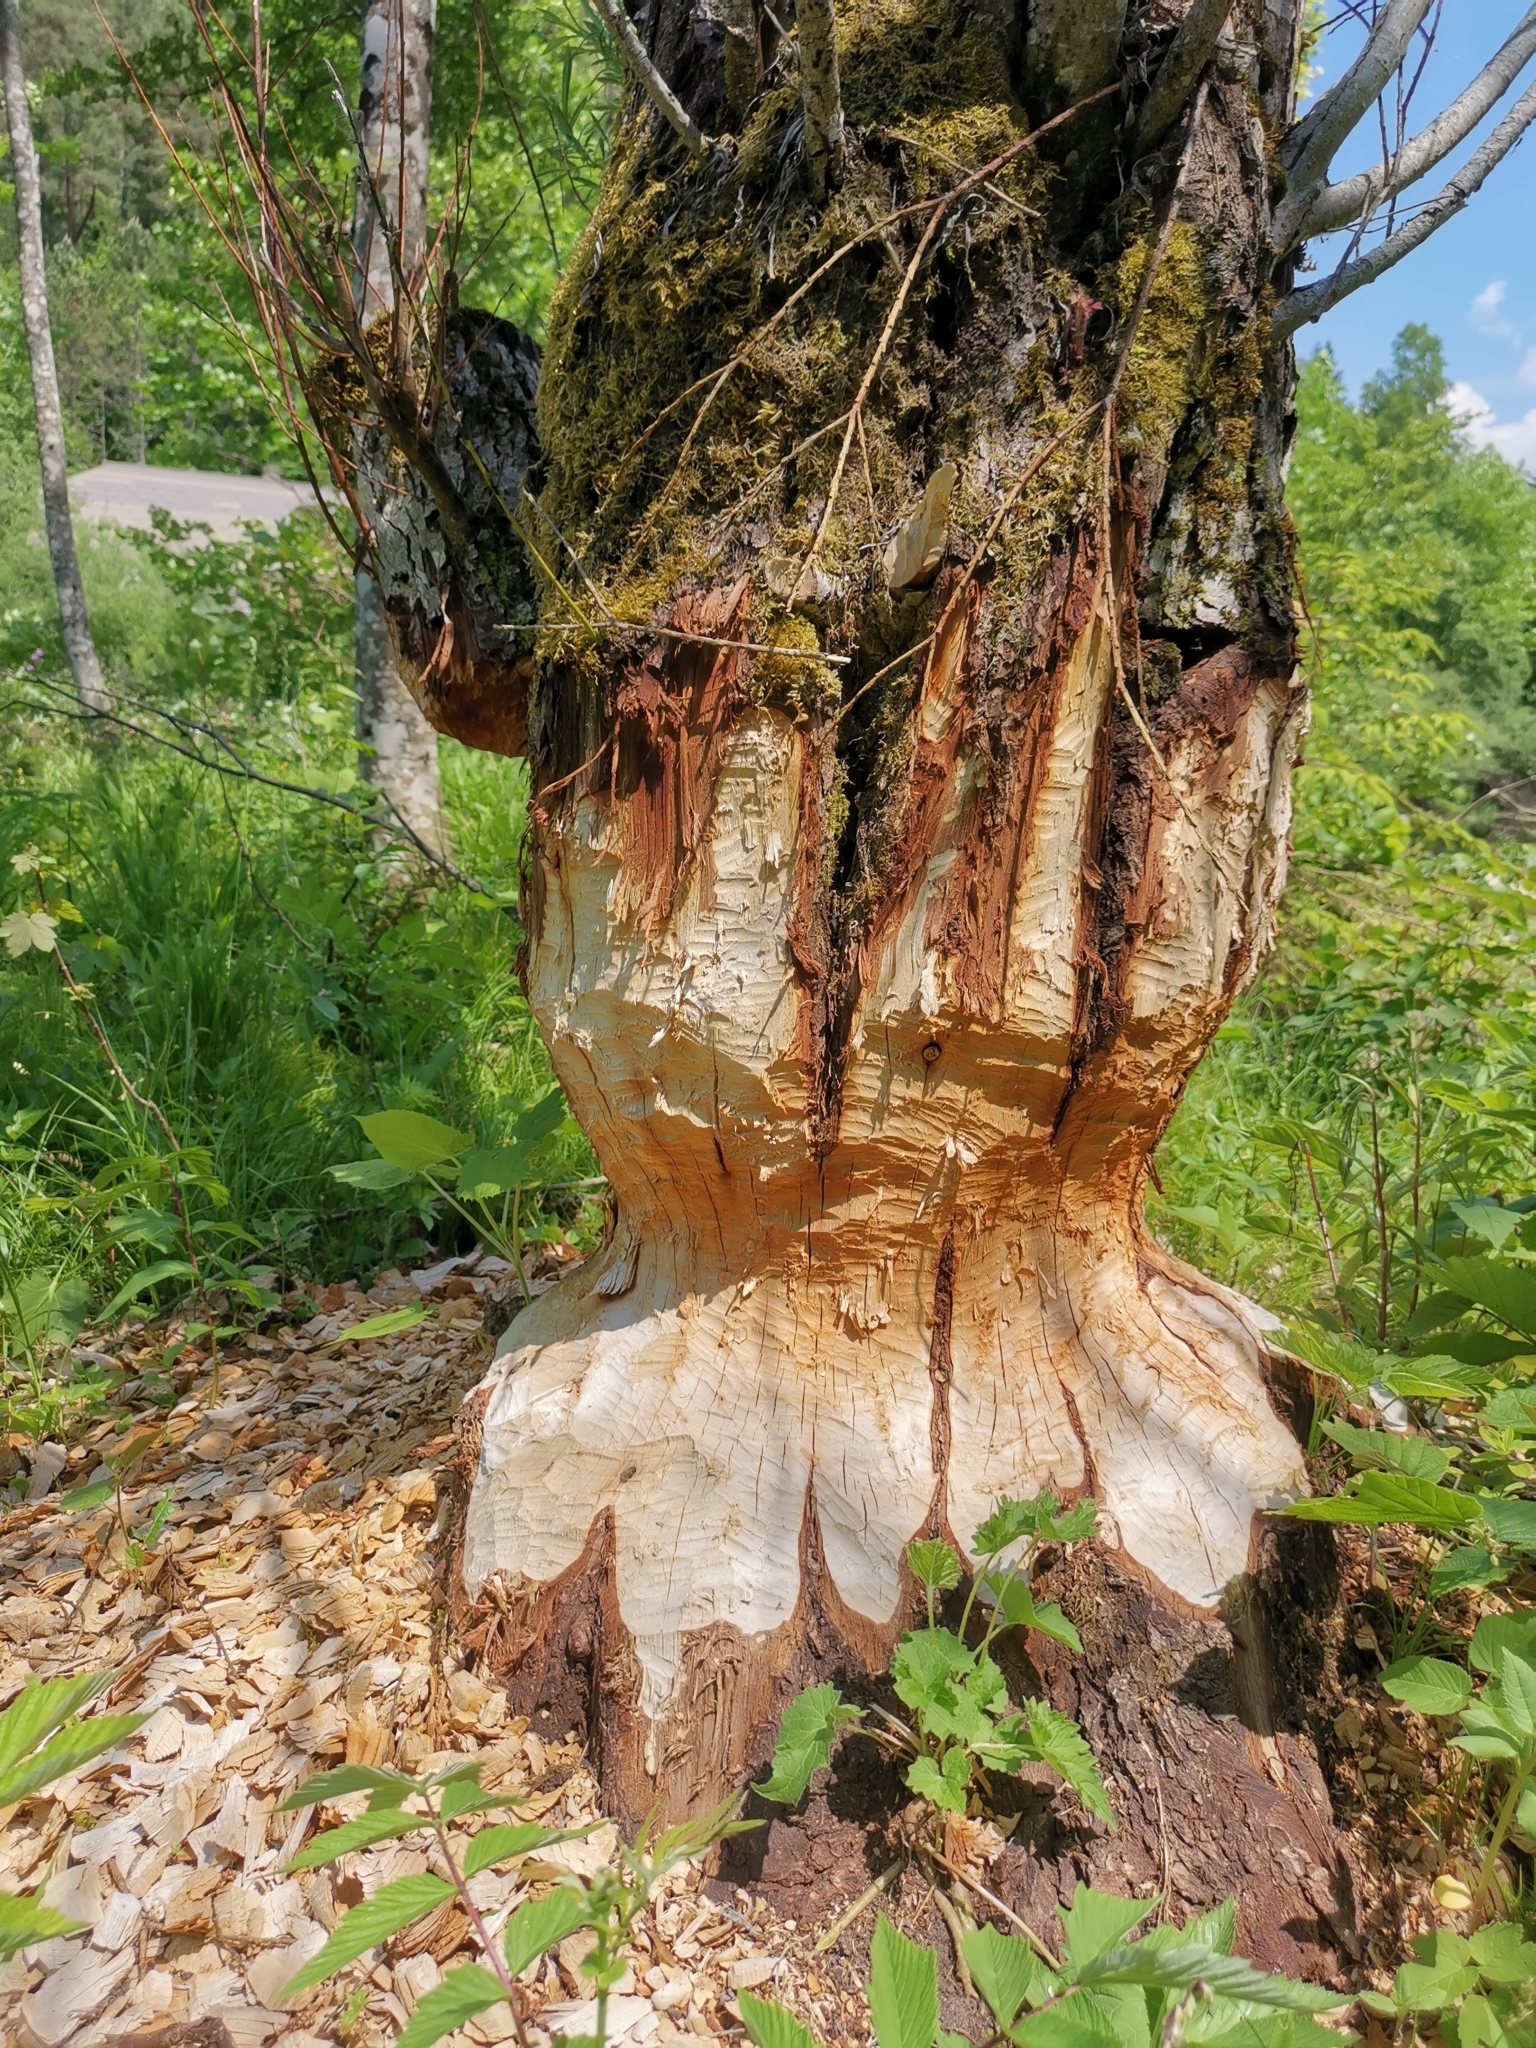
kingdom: Animalia
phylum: Chordata
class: Mammalia
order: Rodentia
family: Castoridae
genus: Castor
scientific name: Castor fiber
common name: Eurasian beaver
